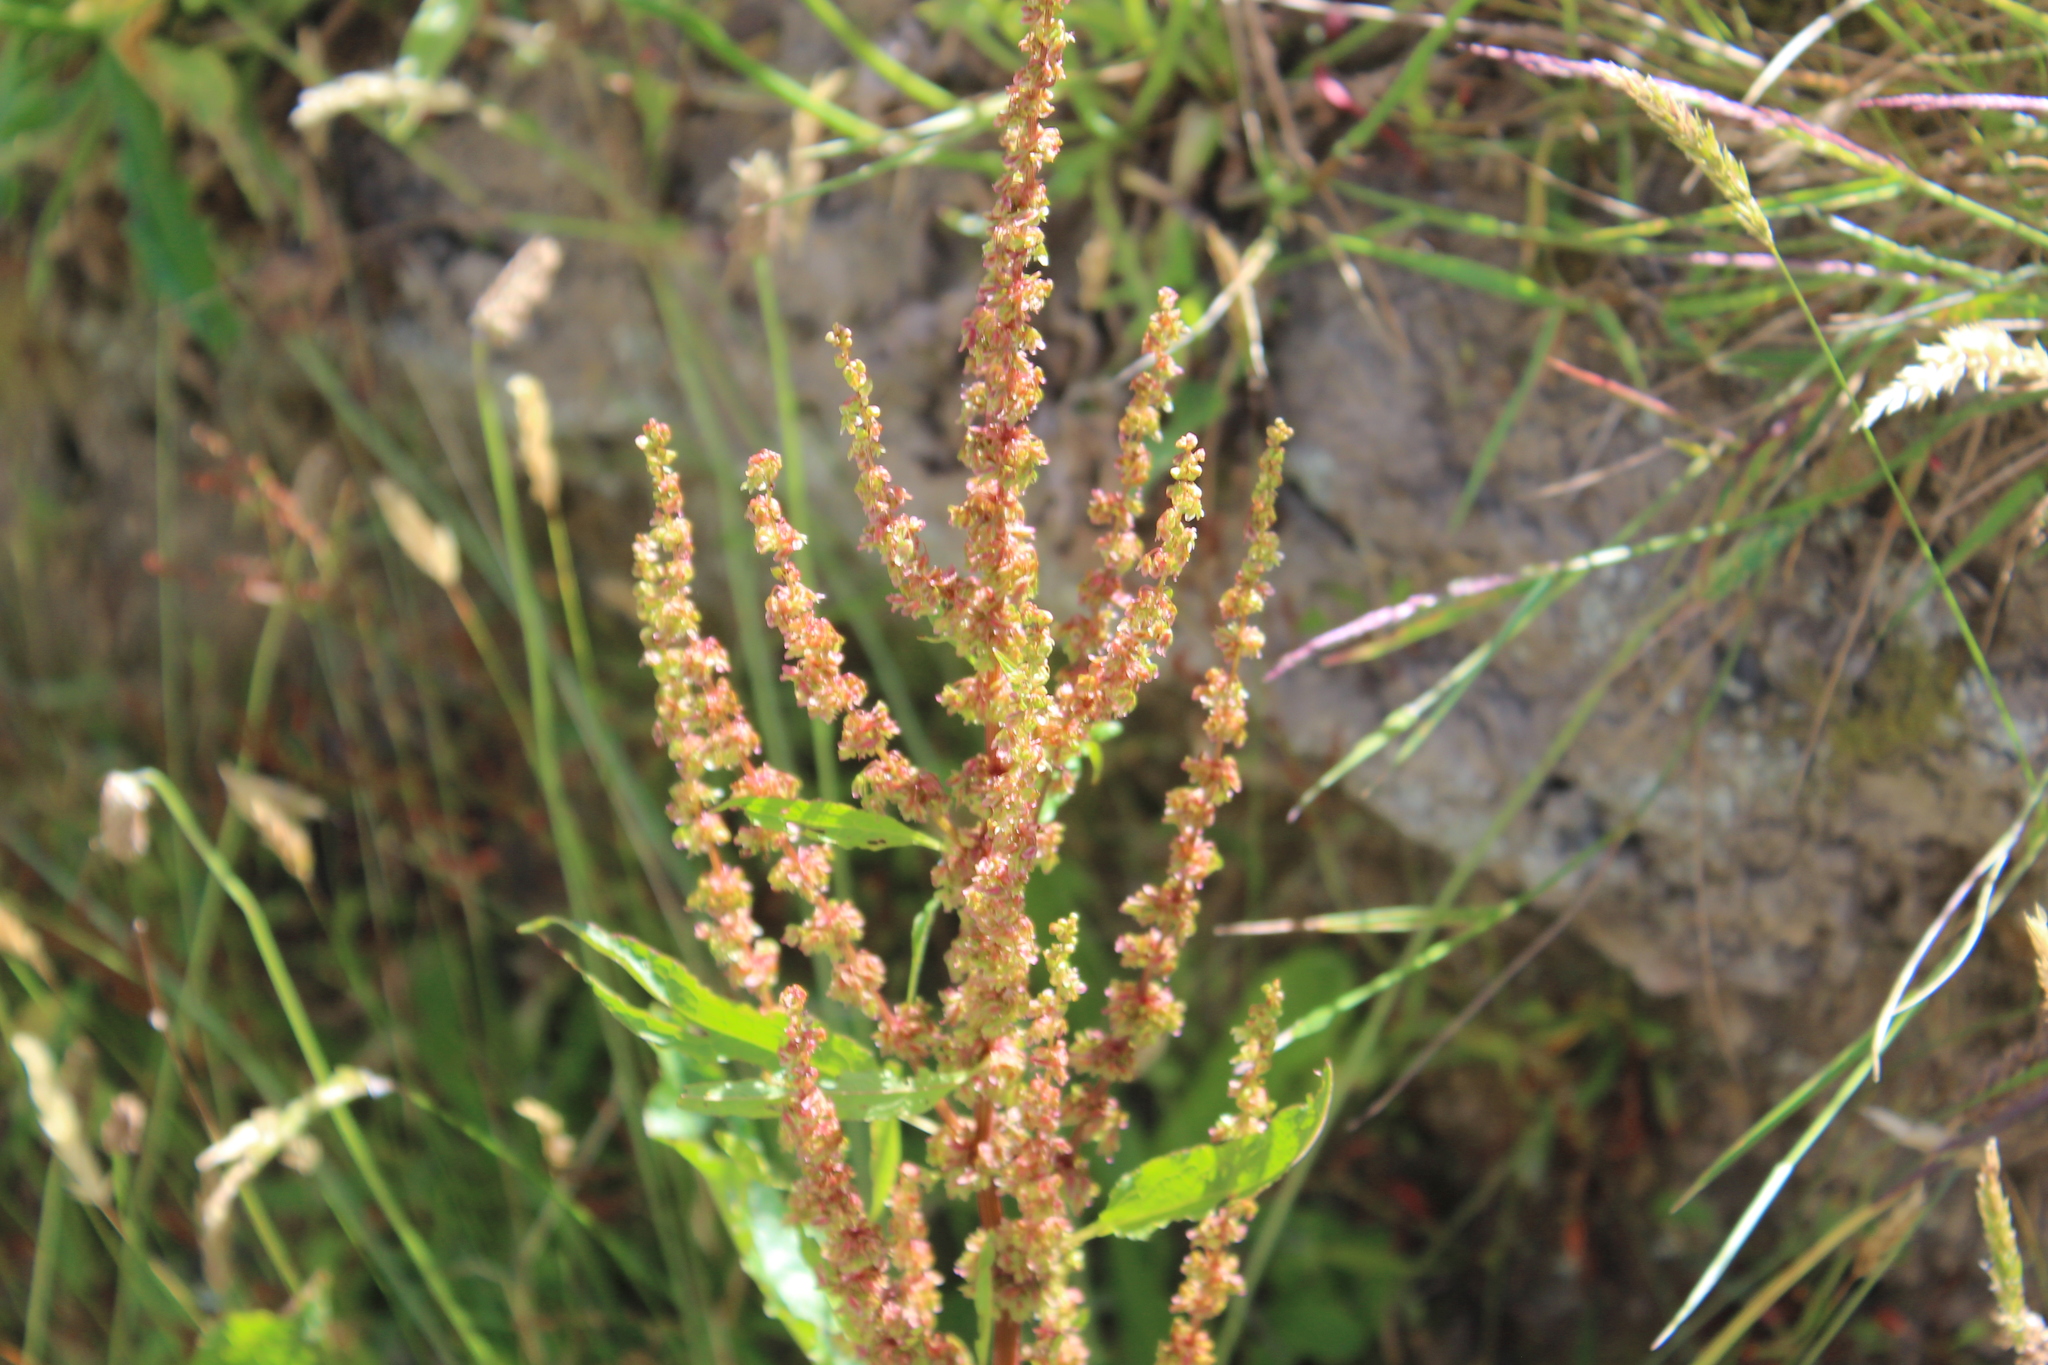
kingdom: Plantae
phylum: Tracheophyta
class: Magnoliopsida
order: Caryophyllales
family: Polygonaceae
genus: Rumex
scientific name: Rumex obtusifolius
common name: Bitter dock
